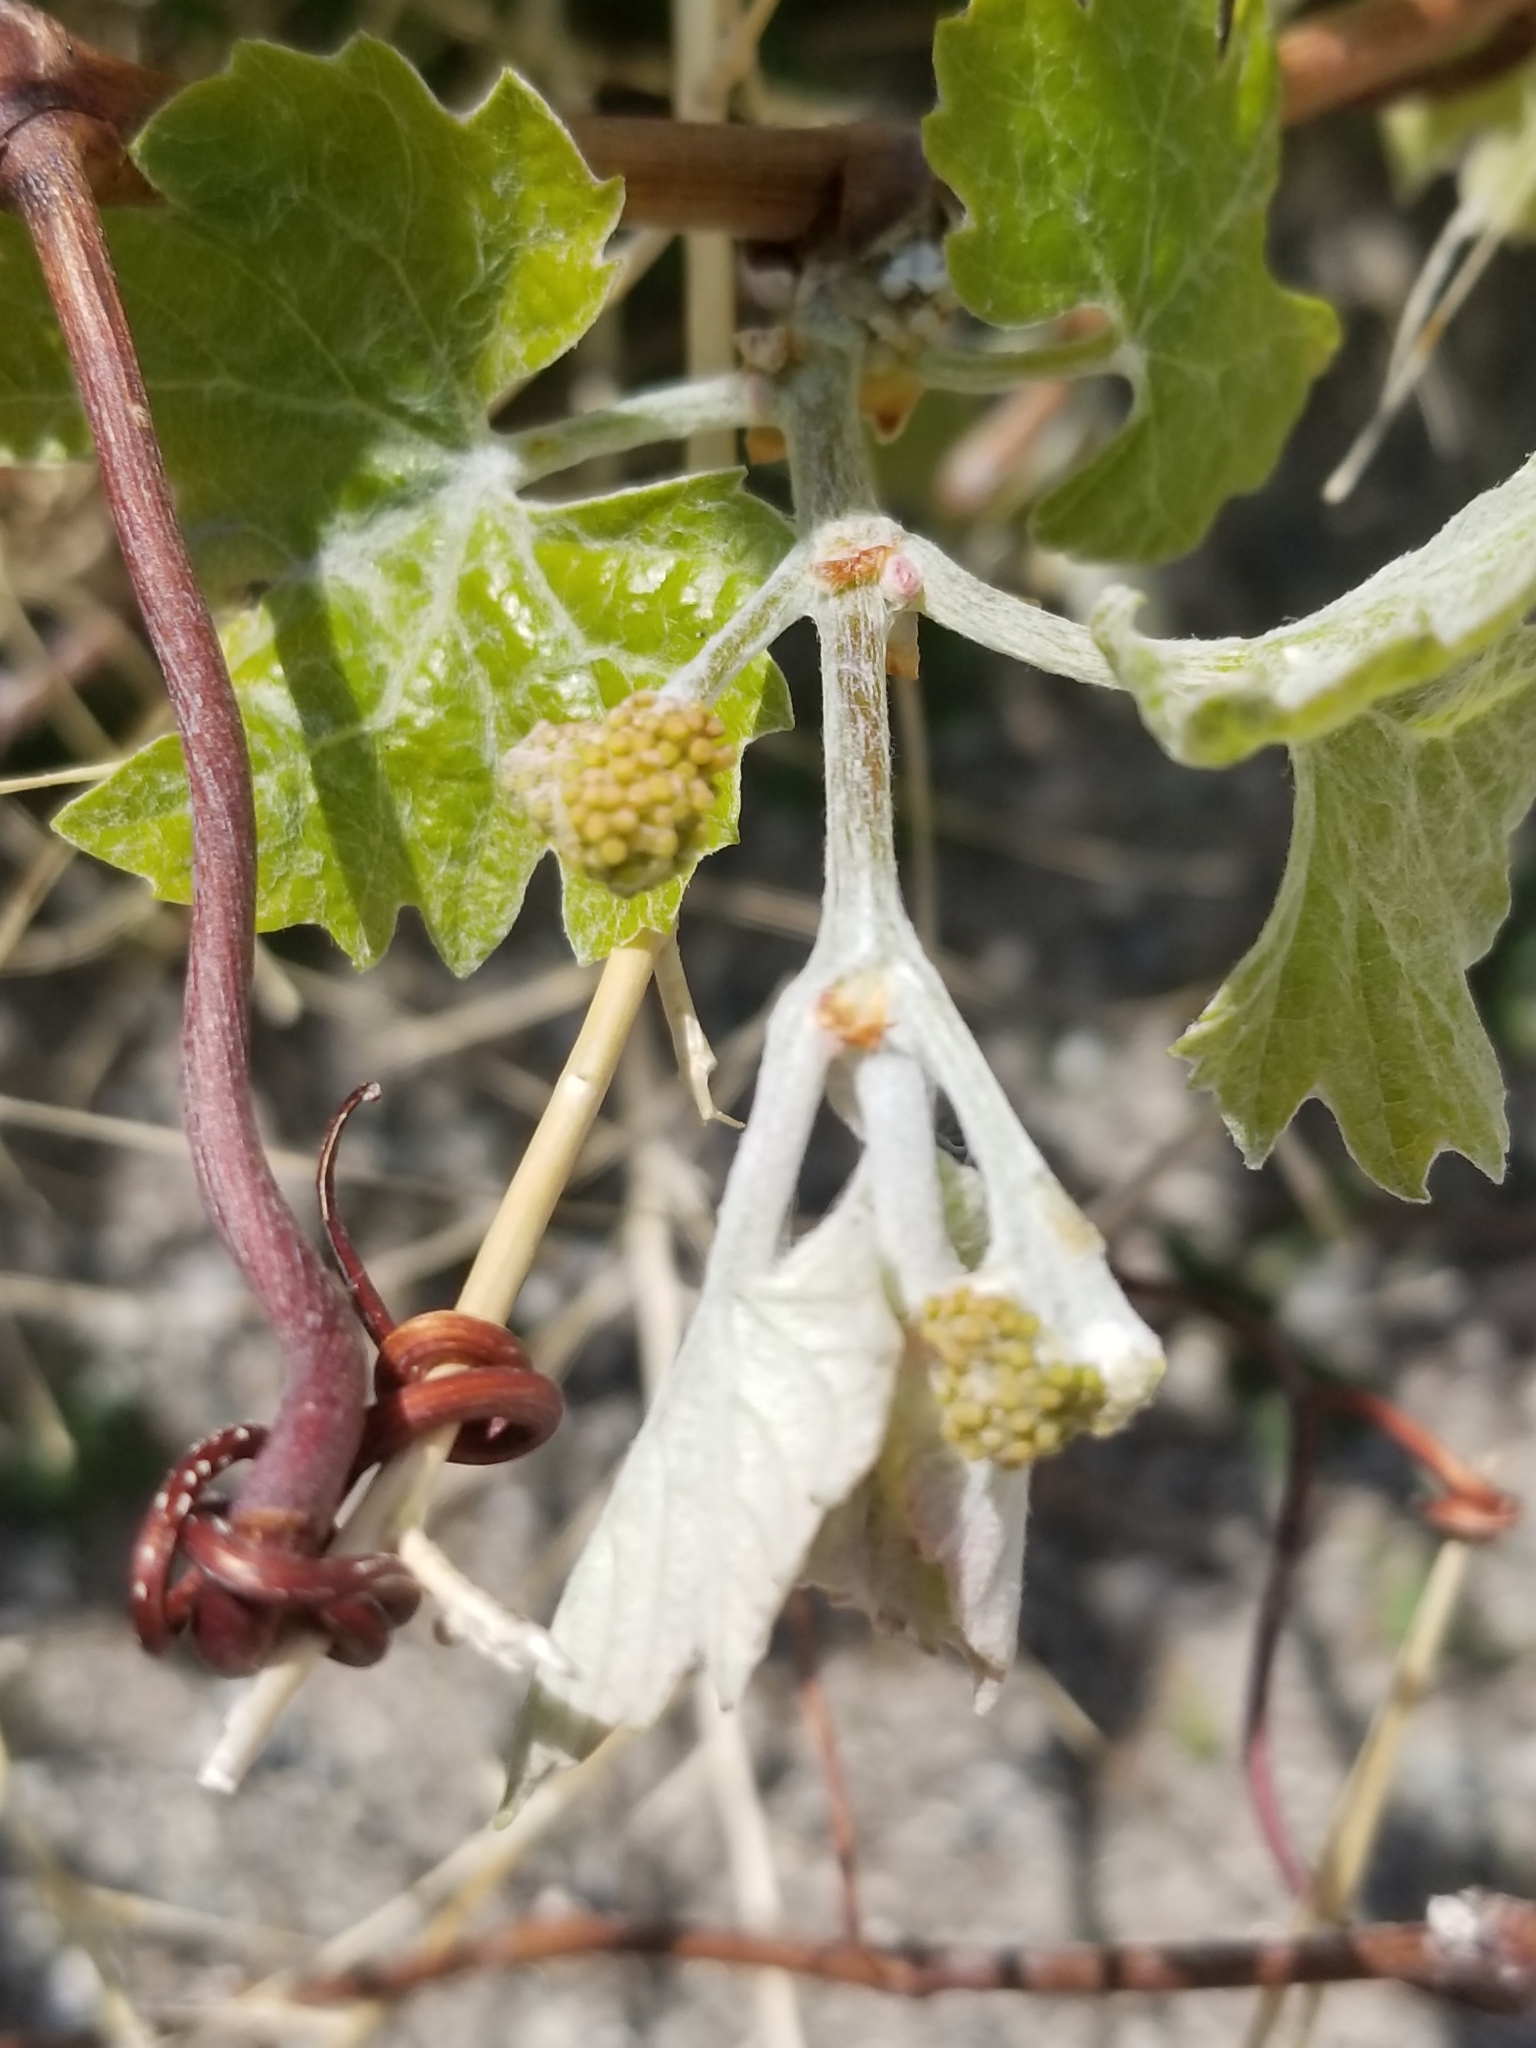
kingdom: Plantae
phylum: Tracheophyta
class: Magnoliopsida
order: Vitales
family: Vitaceae
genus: Vitis
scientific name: Vitis girdiana
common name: Desert wild grape
